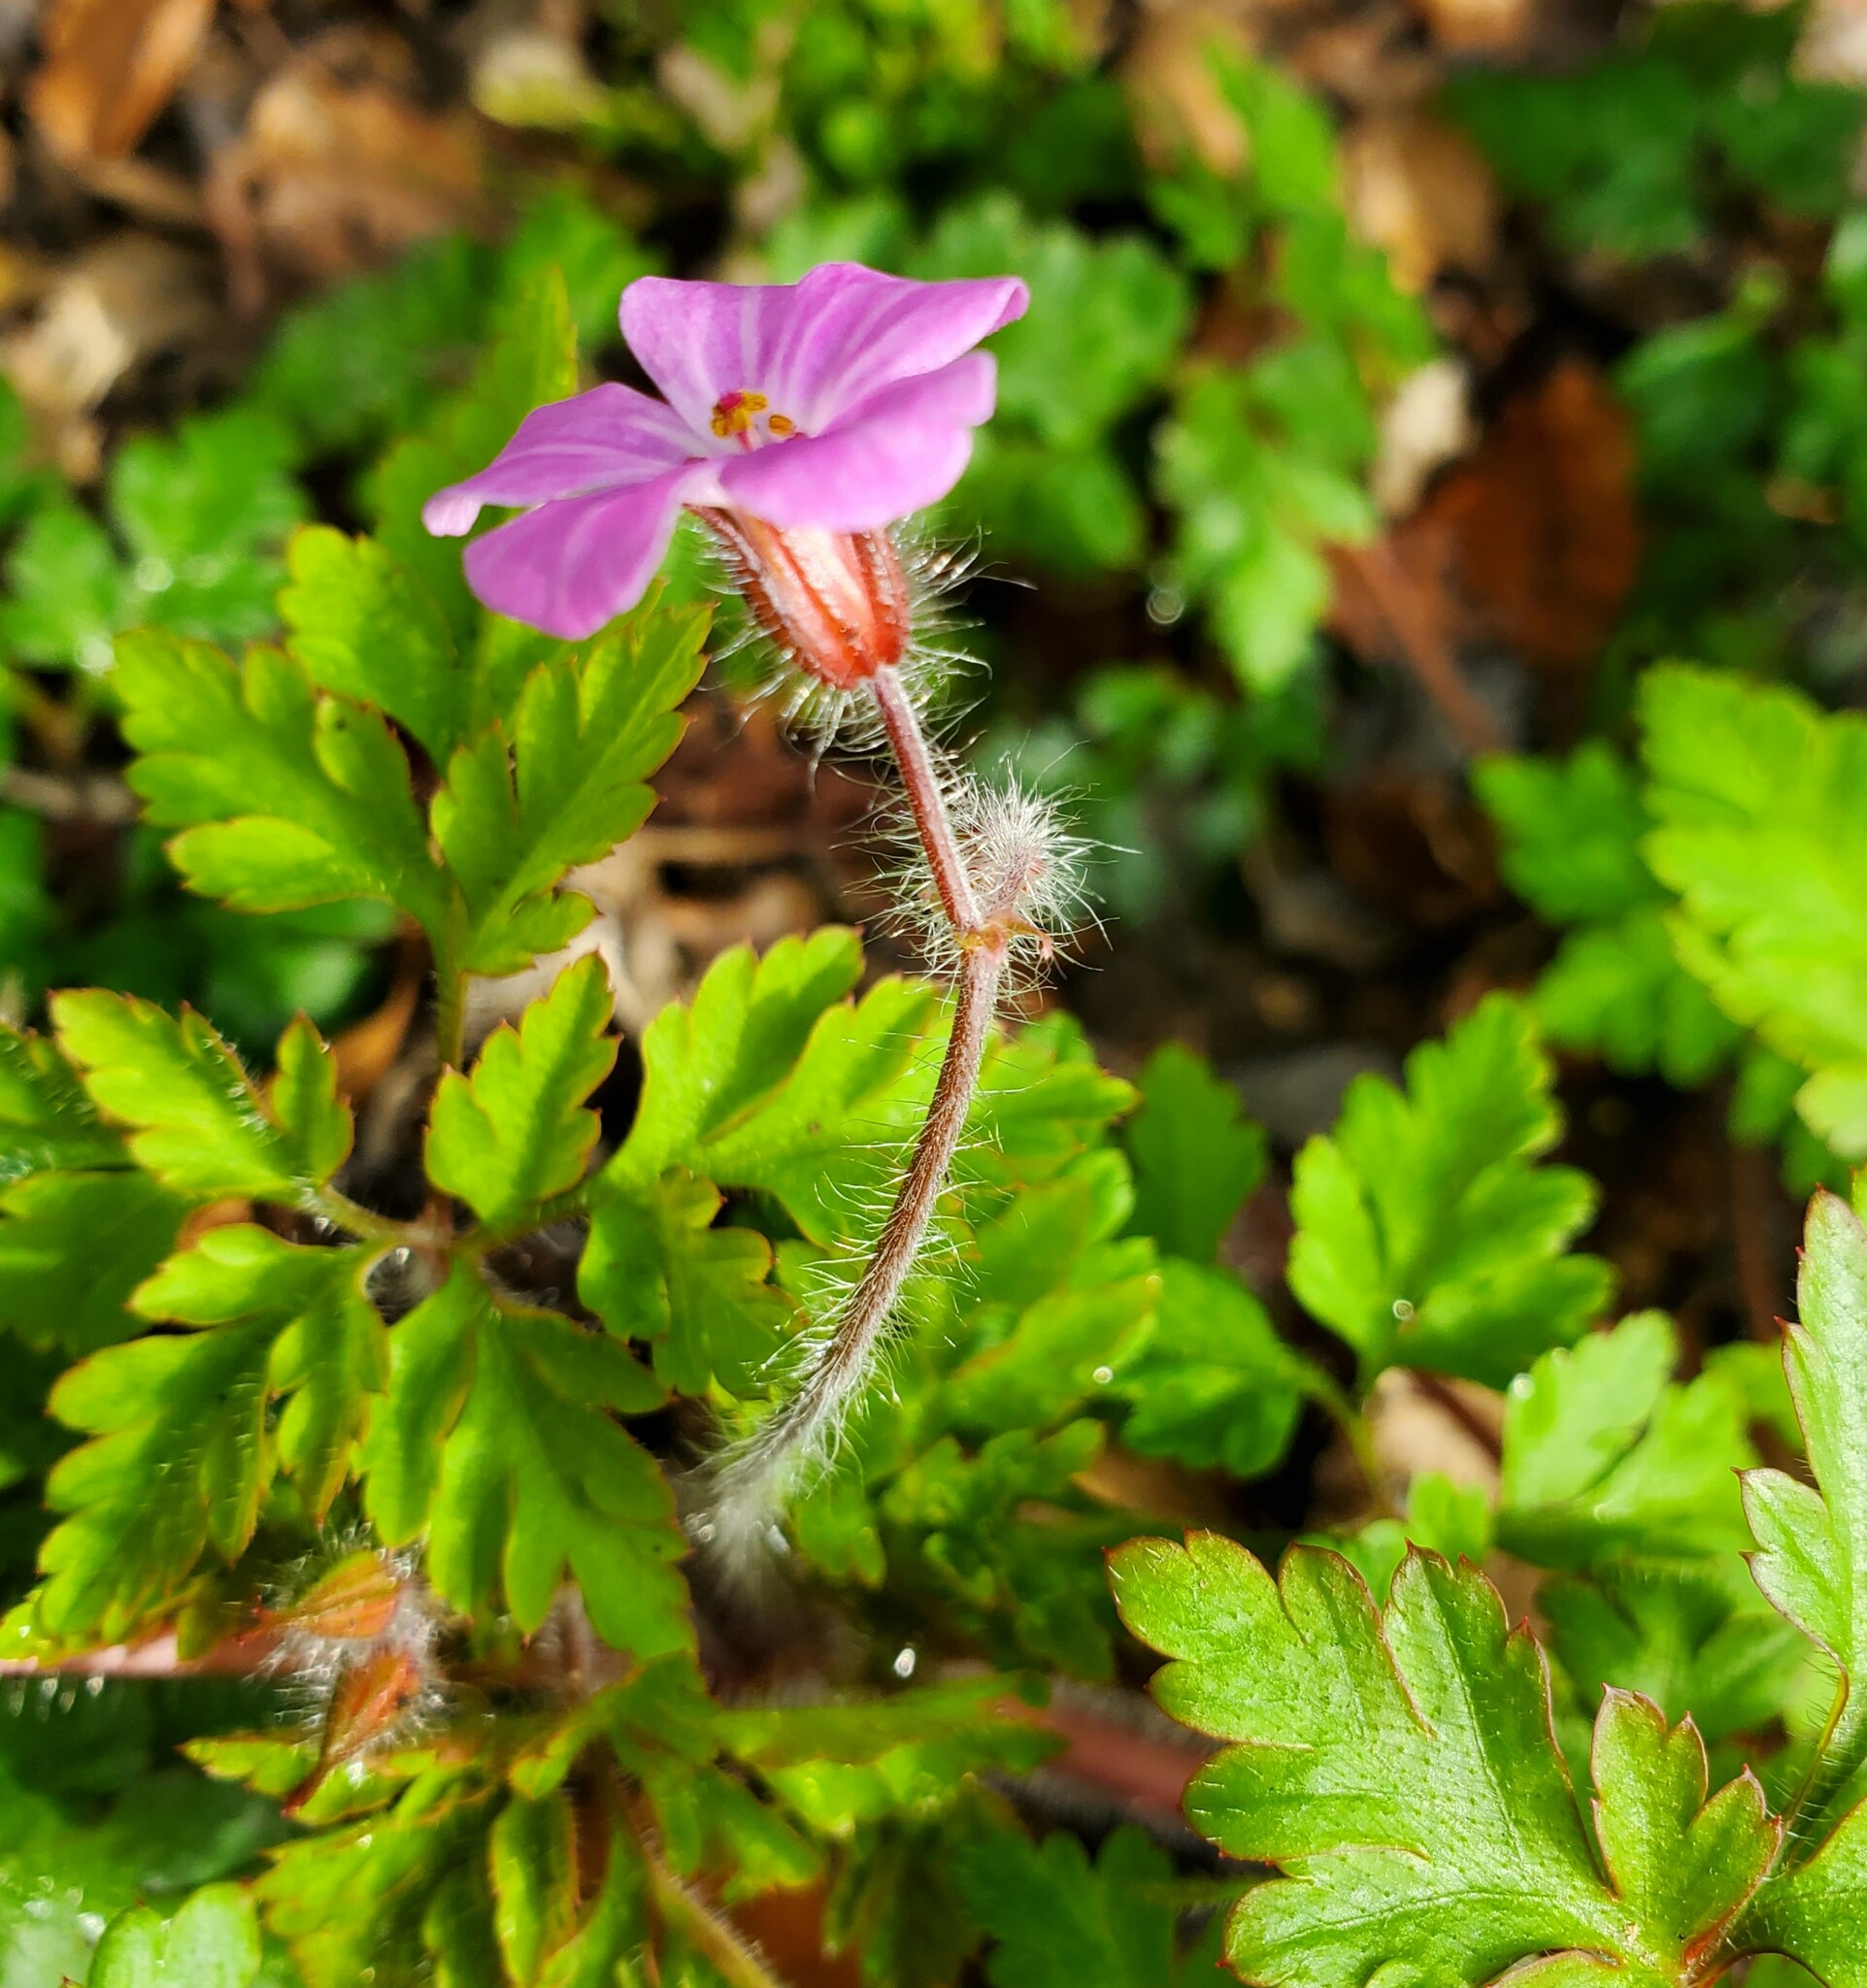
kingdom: Plantae
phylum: Tracheophyta
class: Magnoliopsida
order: Geraniales
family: Geraniaceae
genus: Geranium
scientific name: Geranium robertianum
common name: Herb-robert
